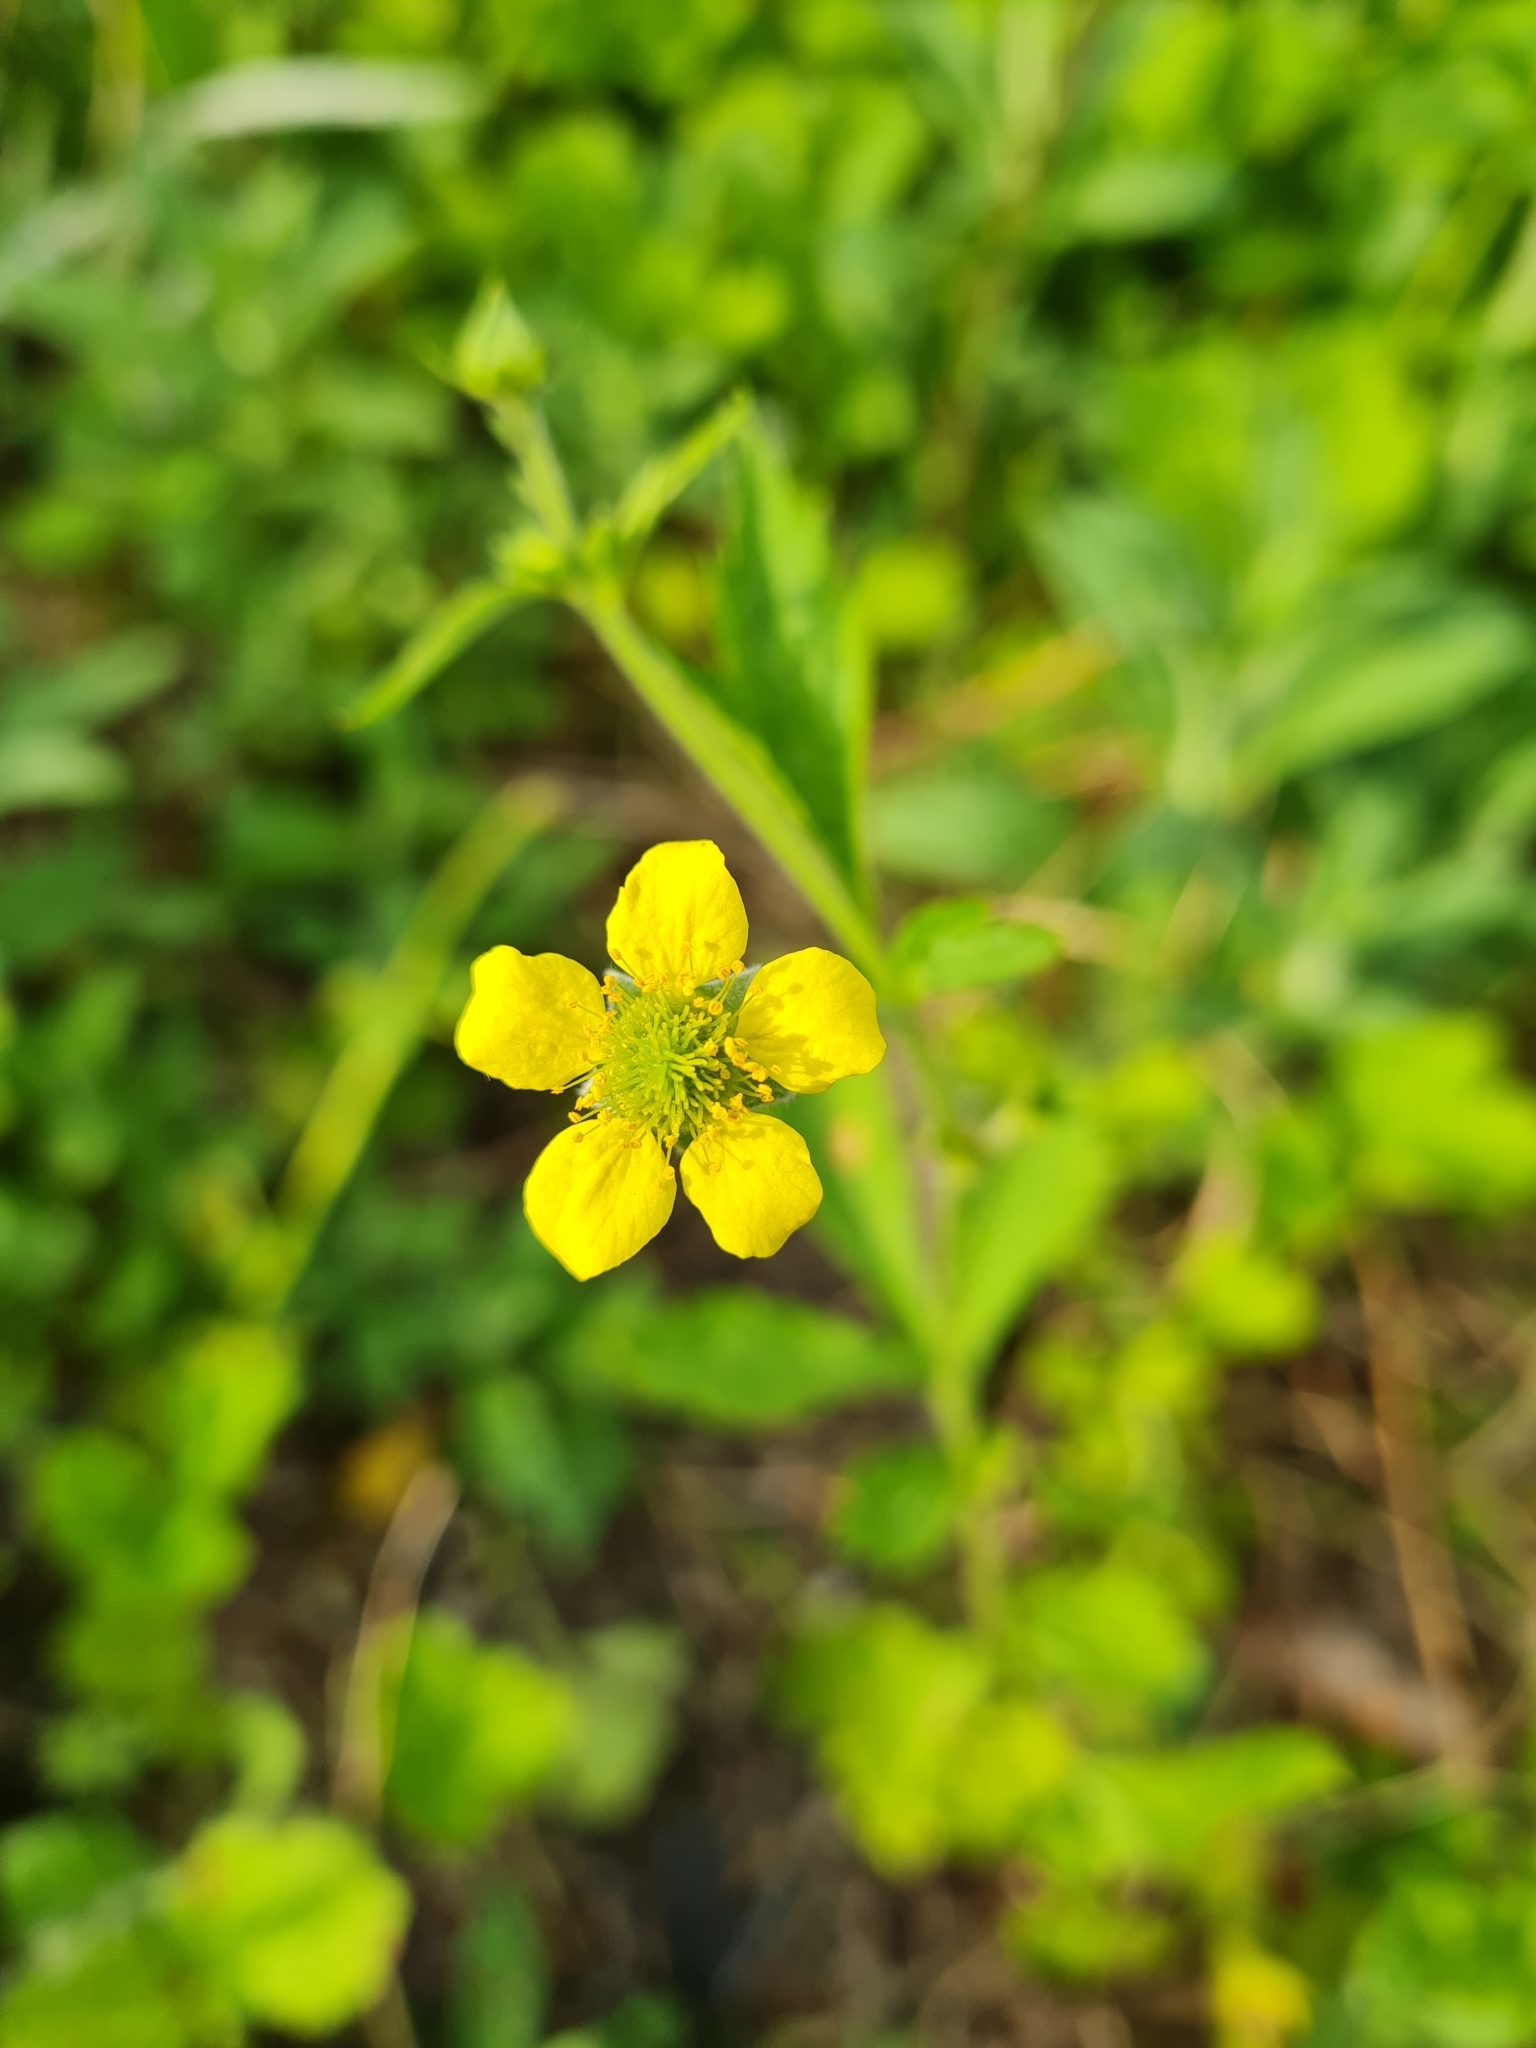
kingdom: Plantae
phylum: Tracheophyta
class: Magnoliopsida
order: Rosales
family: Rosaceae
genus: Geum
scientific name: Geum urbanum
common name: Wood avens
